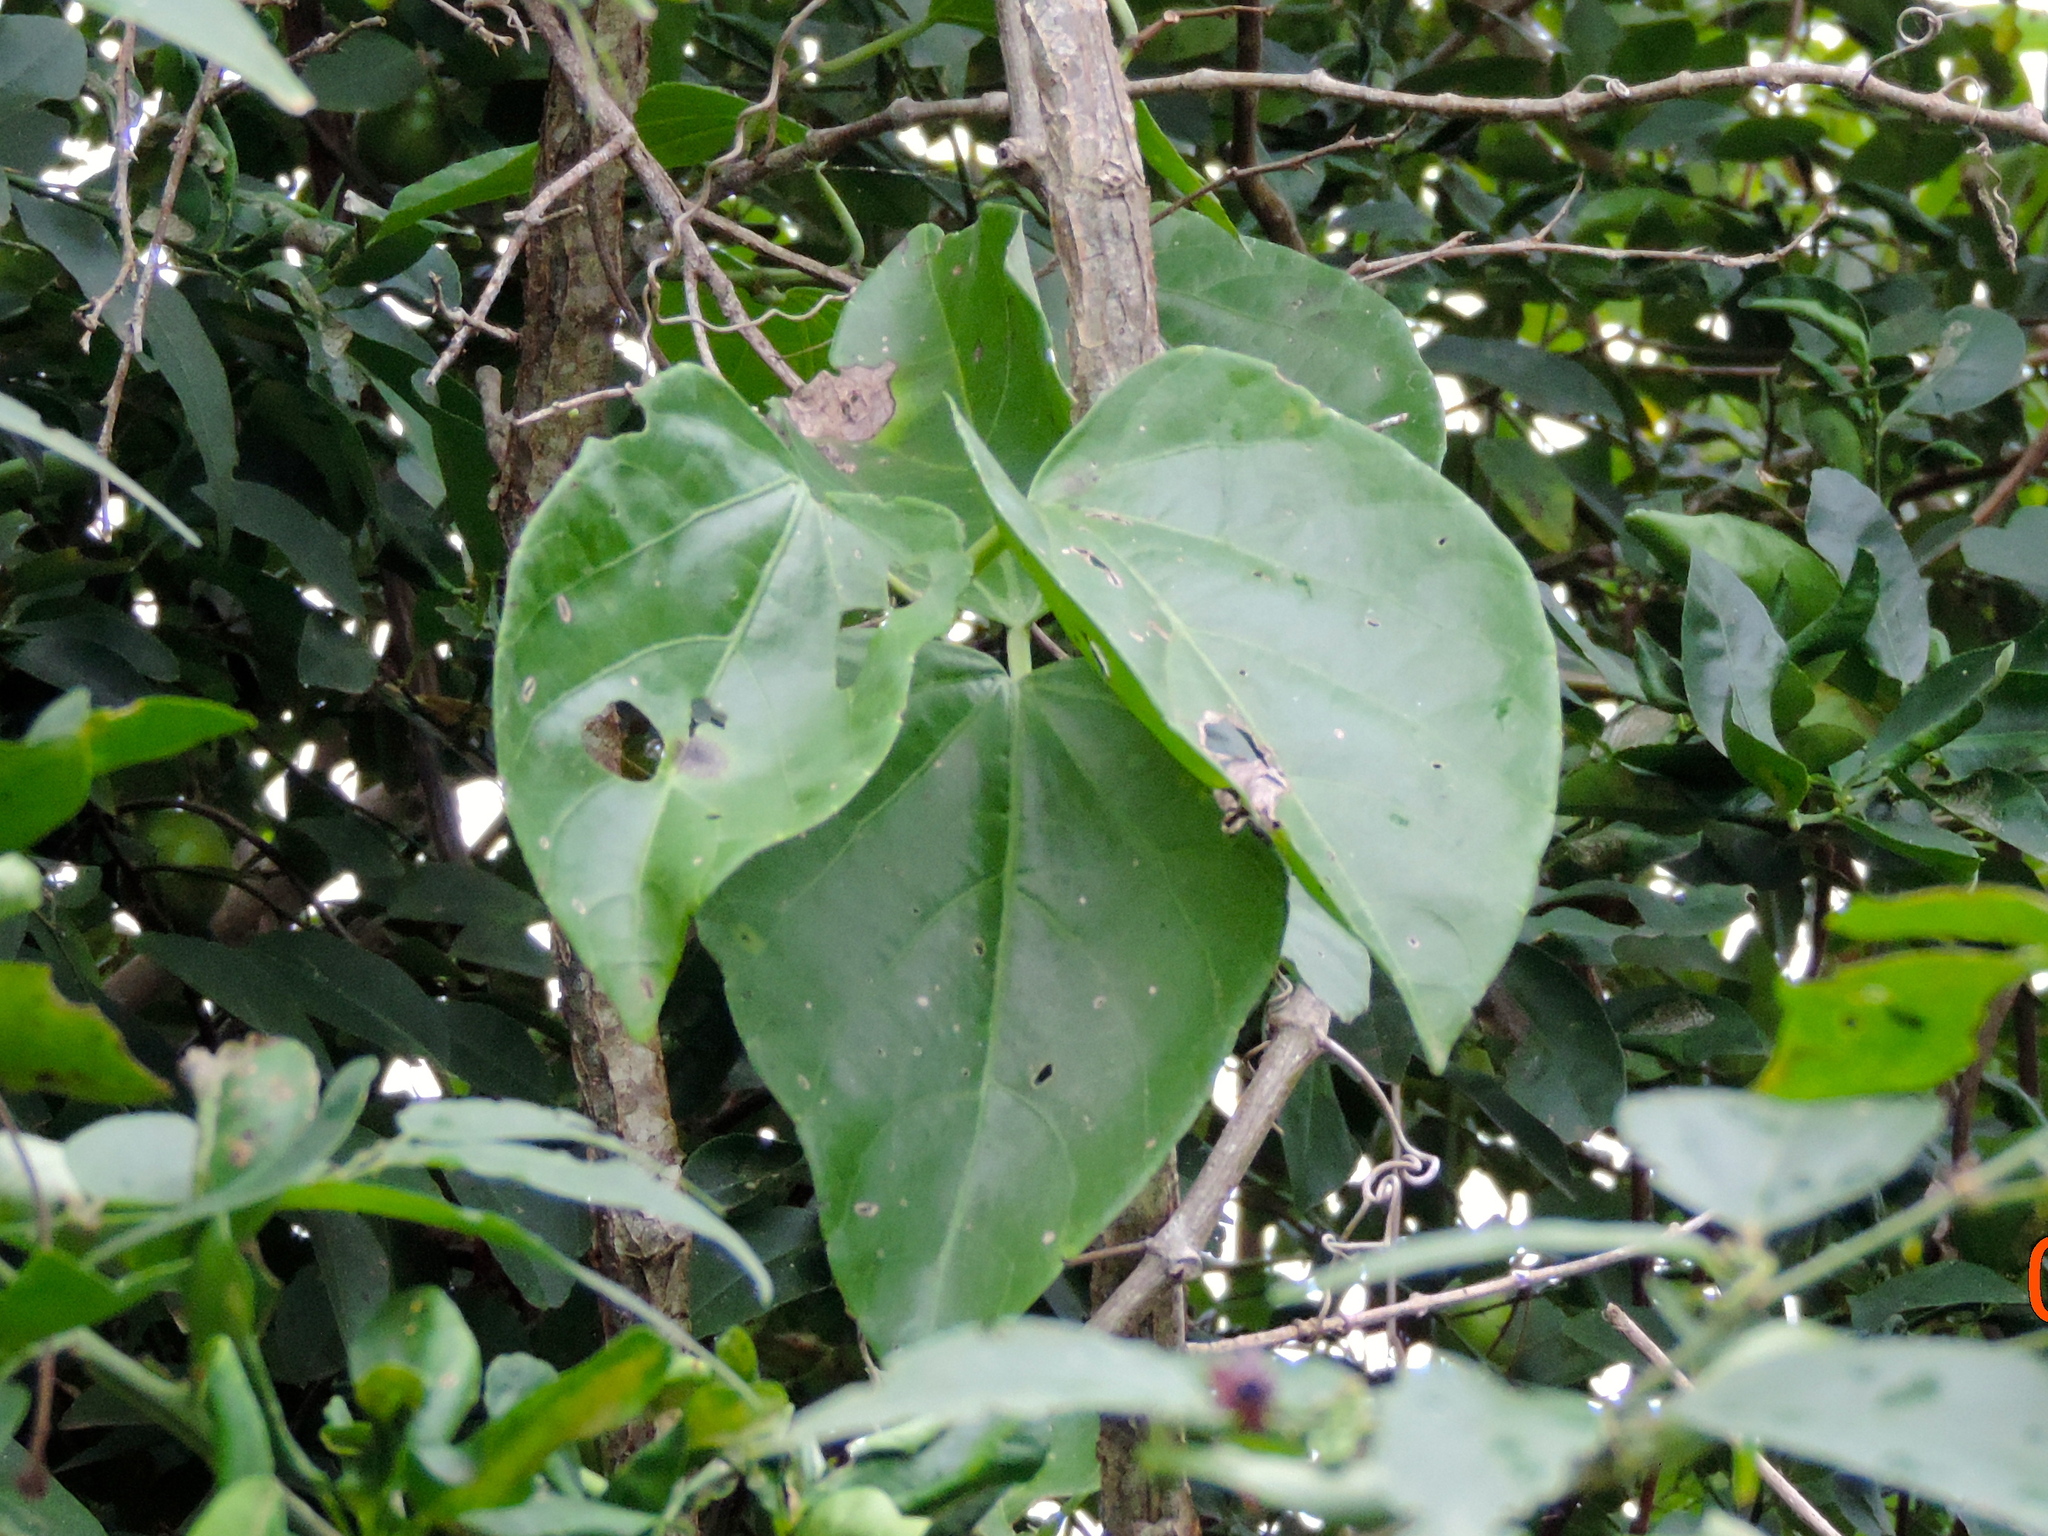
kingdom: Plantae
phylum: Tracheophyta
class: Magnoliopsida
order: Vitales
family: Vitaceae
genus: Cissus
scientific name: Cissus alata
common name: Venezuela treebind
